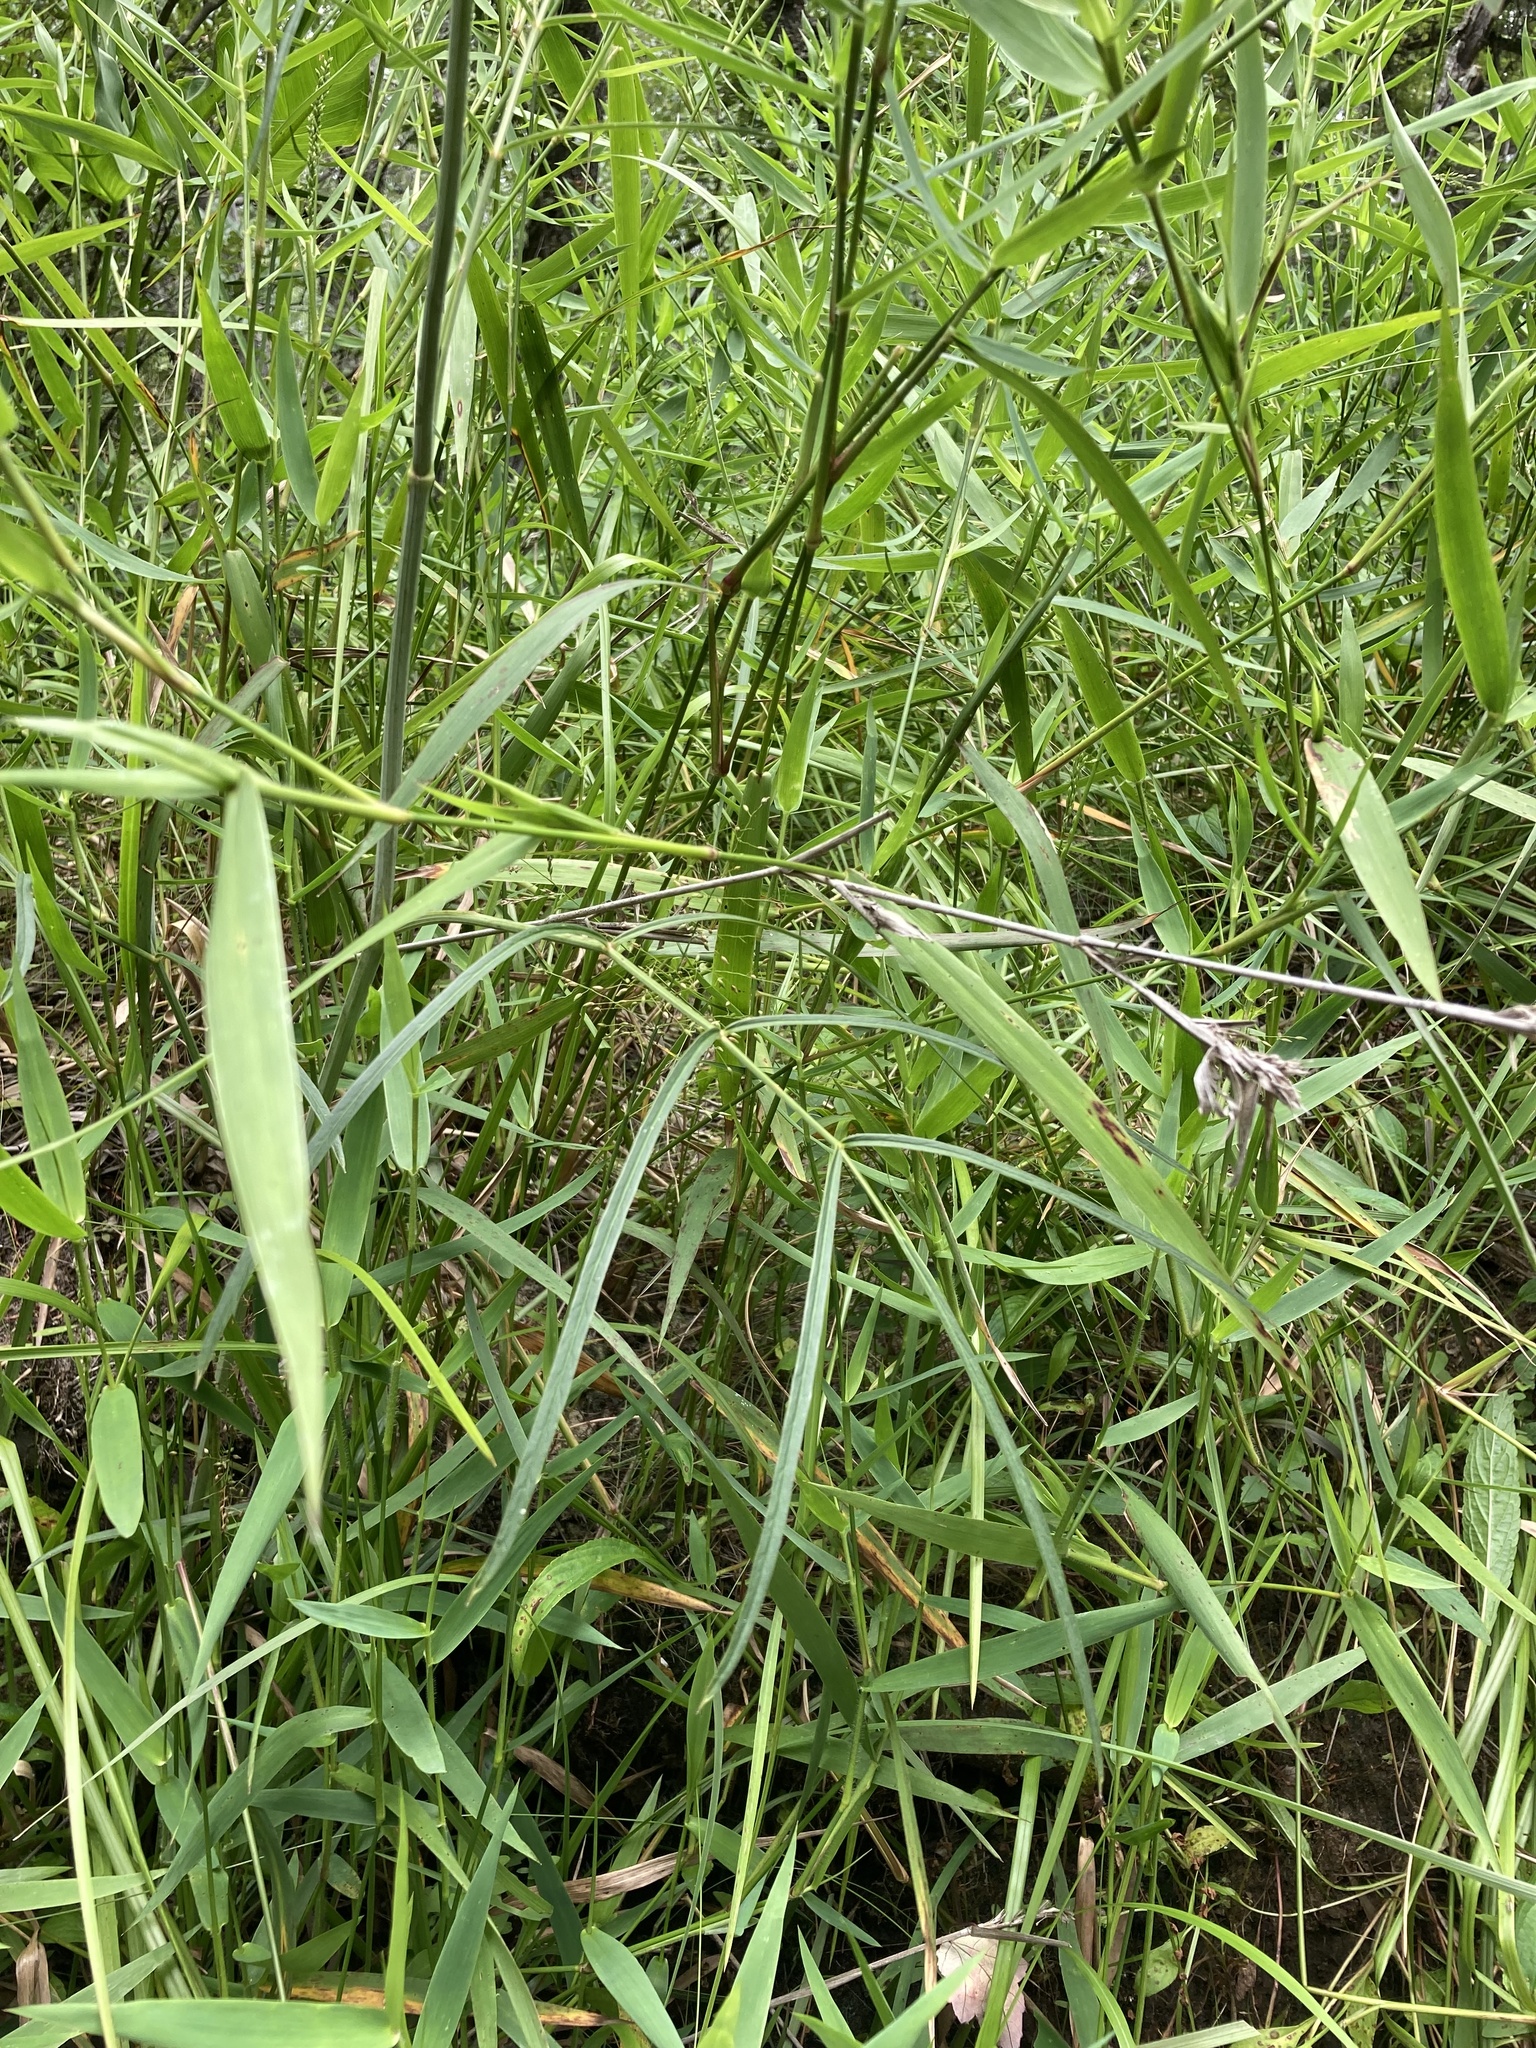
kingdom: Plantae
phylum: Tracheophyta
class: Magnoliopsida
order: Apiales
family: Apiaceae
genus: Oxypolis
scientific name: Oxypolis rigidior
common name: Cowbane
